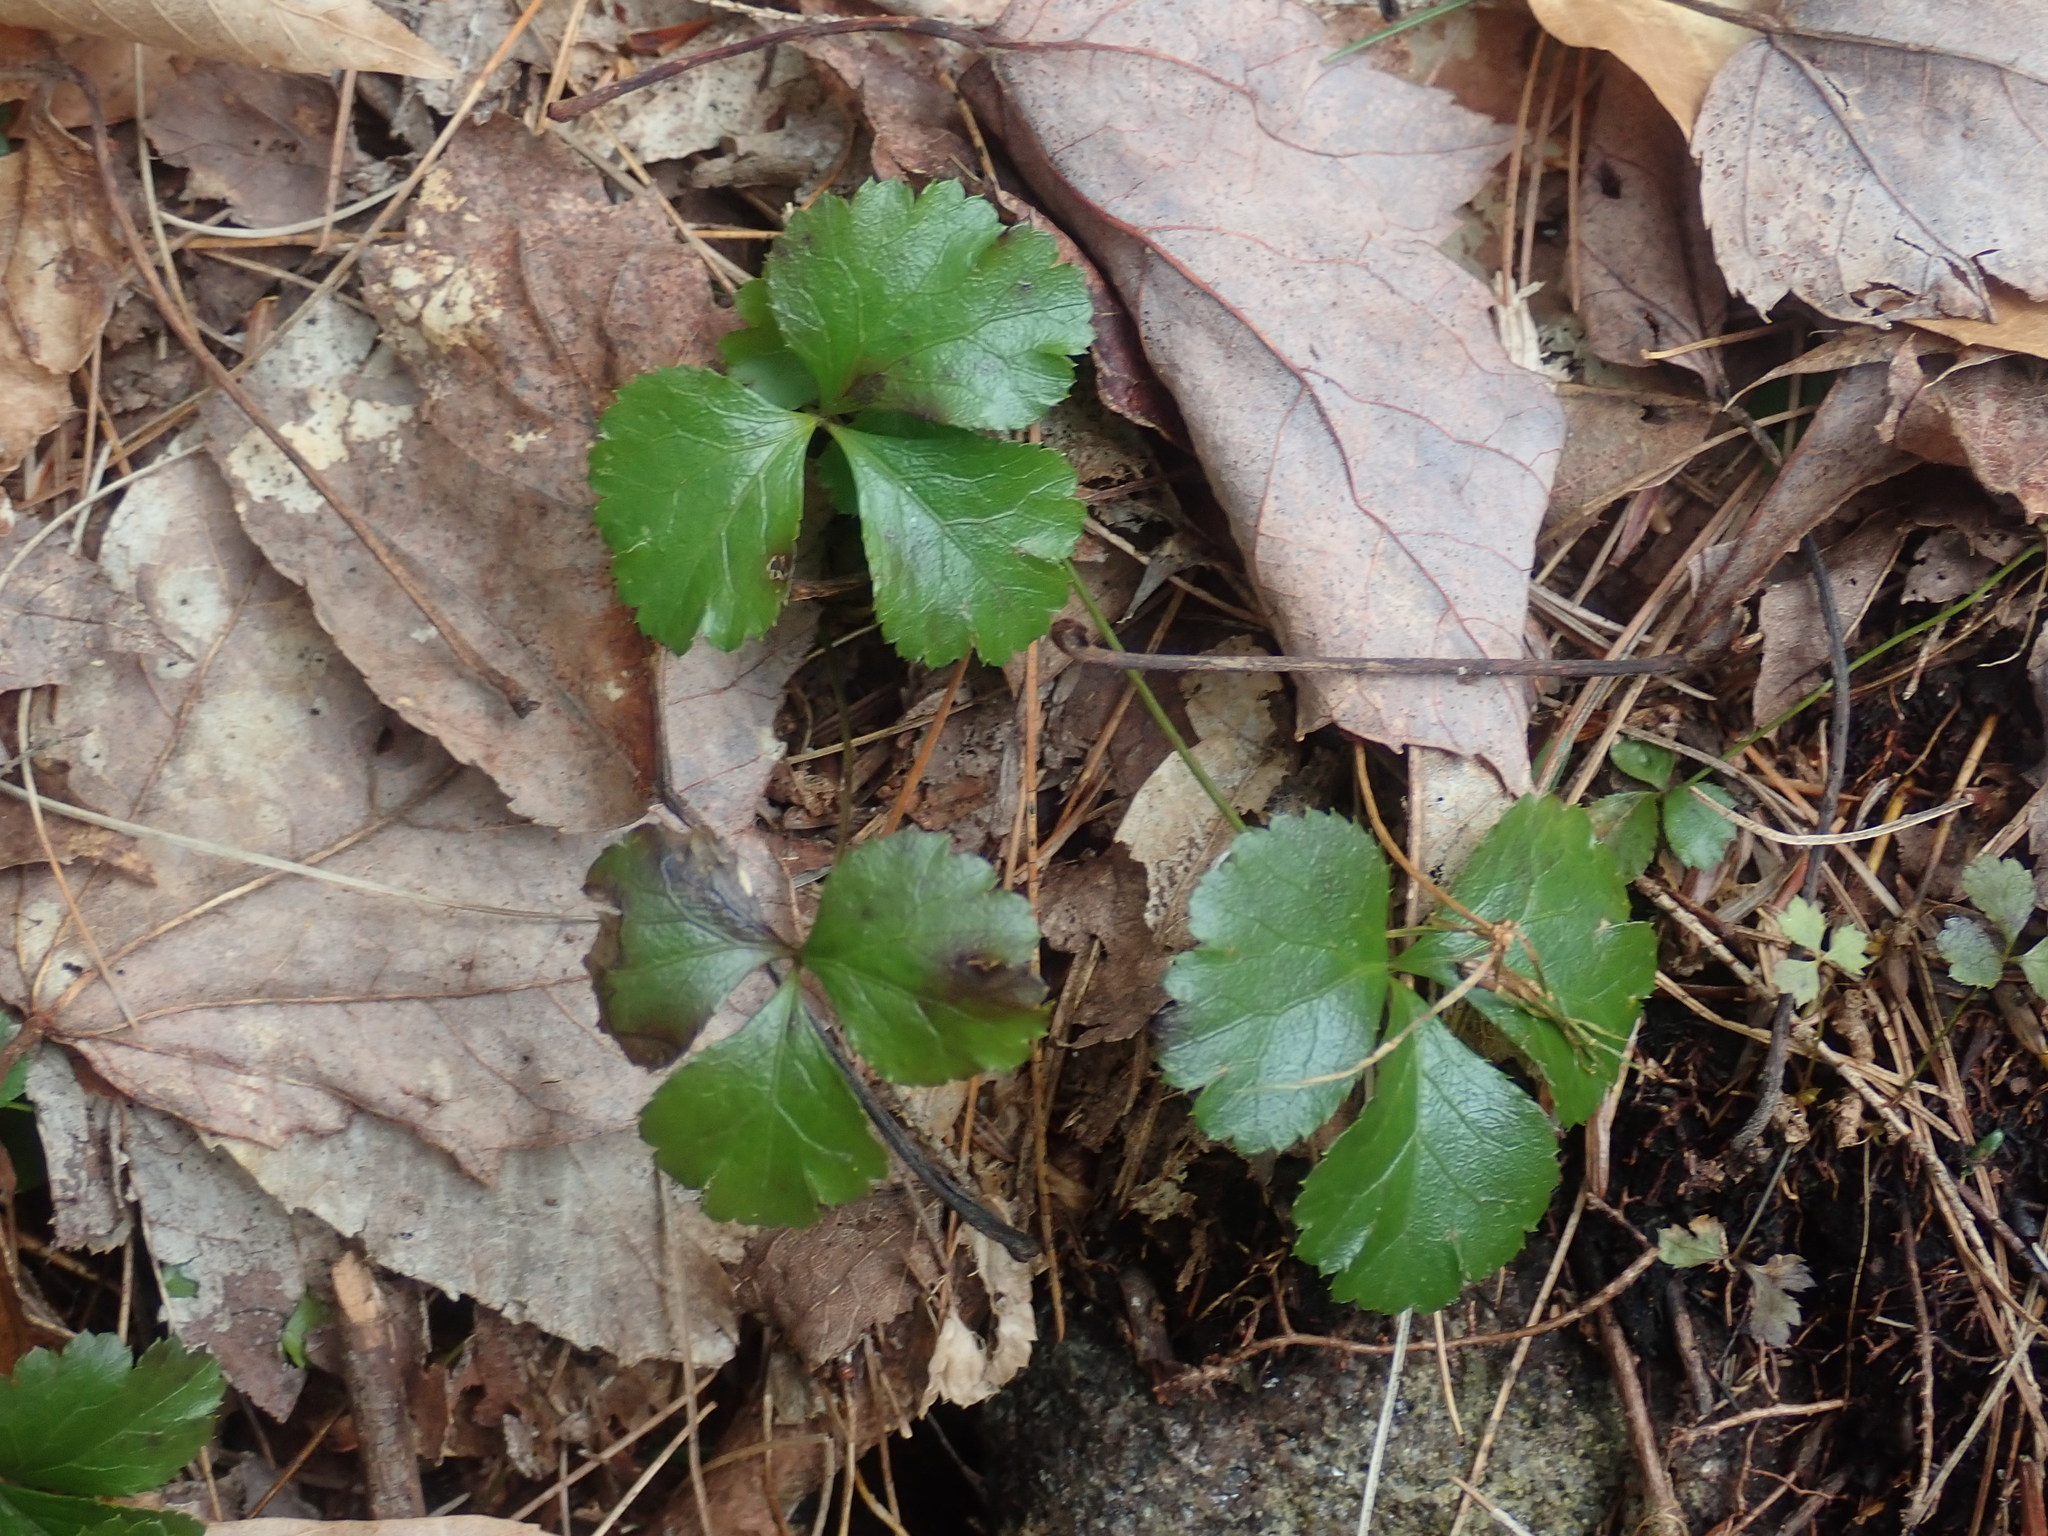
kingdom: Plantae
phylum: Tracheophyta
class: Magnoliopsida
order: Ranunculales
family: Ranunculaceae
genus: Coptis
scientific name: Coptis trifolia
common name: Canker-root
